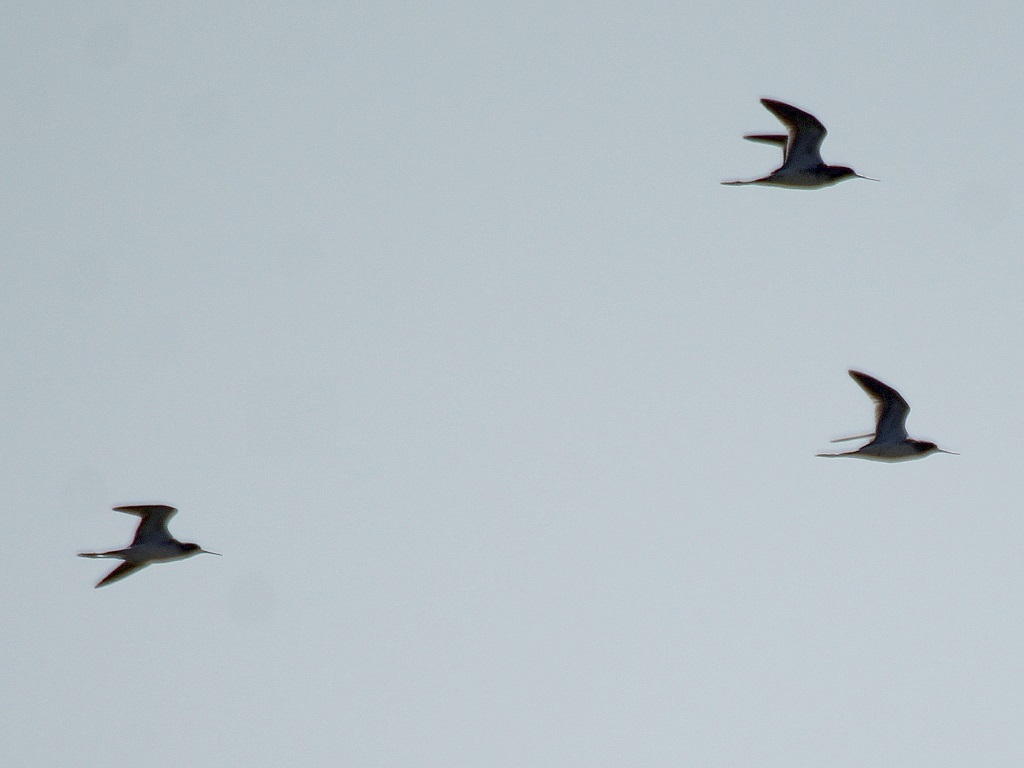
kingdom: Animalia
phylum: Chordata
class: Aves
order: Charadriiformes
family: Scolopacidae
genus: Tringa
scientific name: Tringa stagnatilis
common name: Marsh sandpiper
